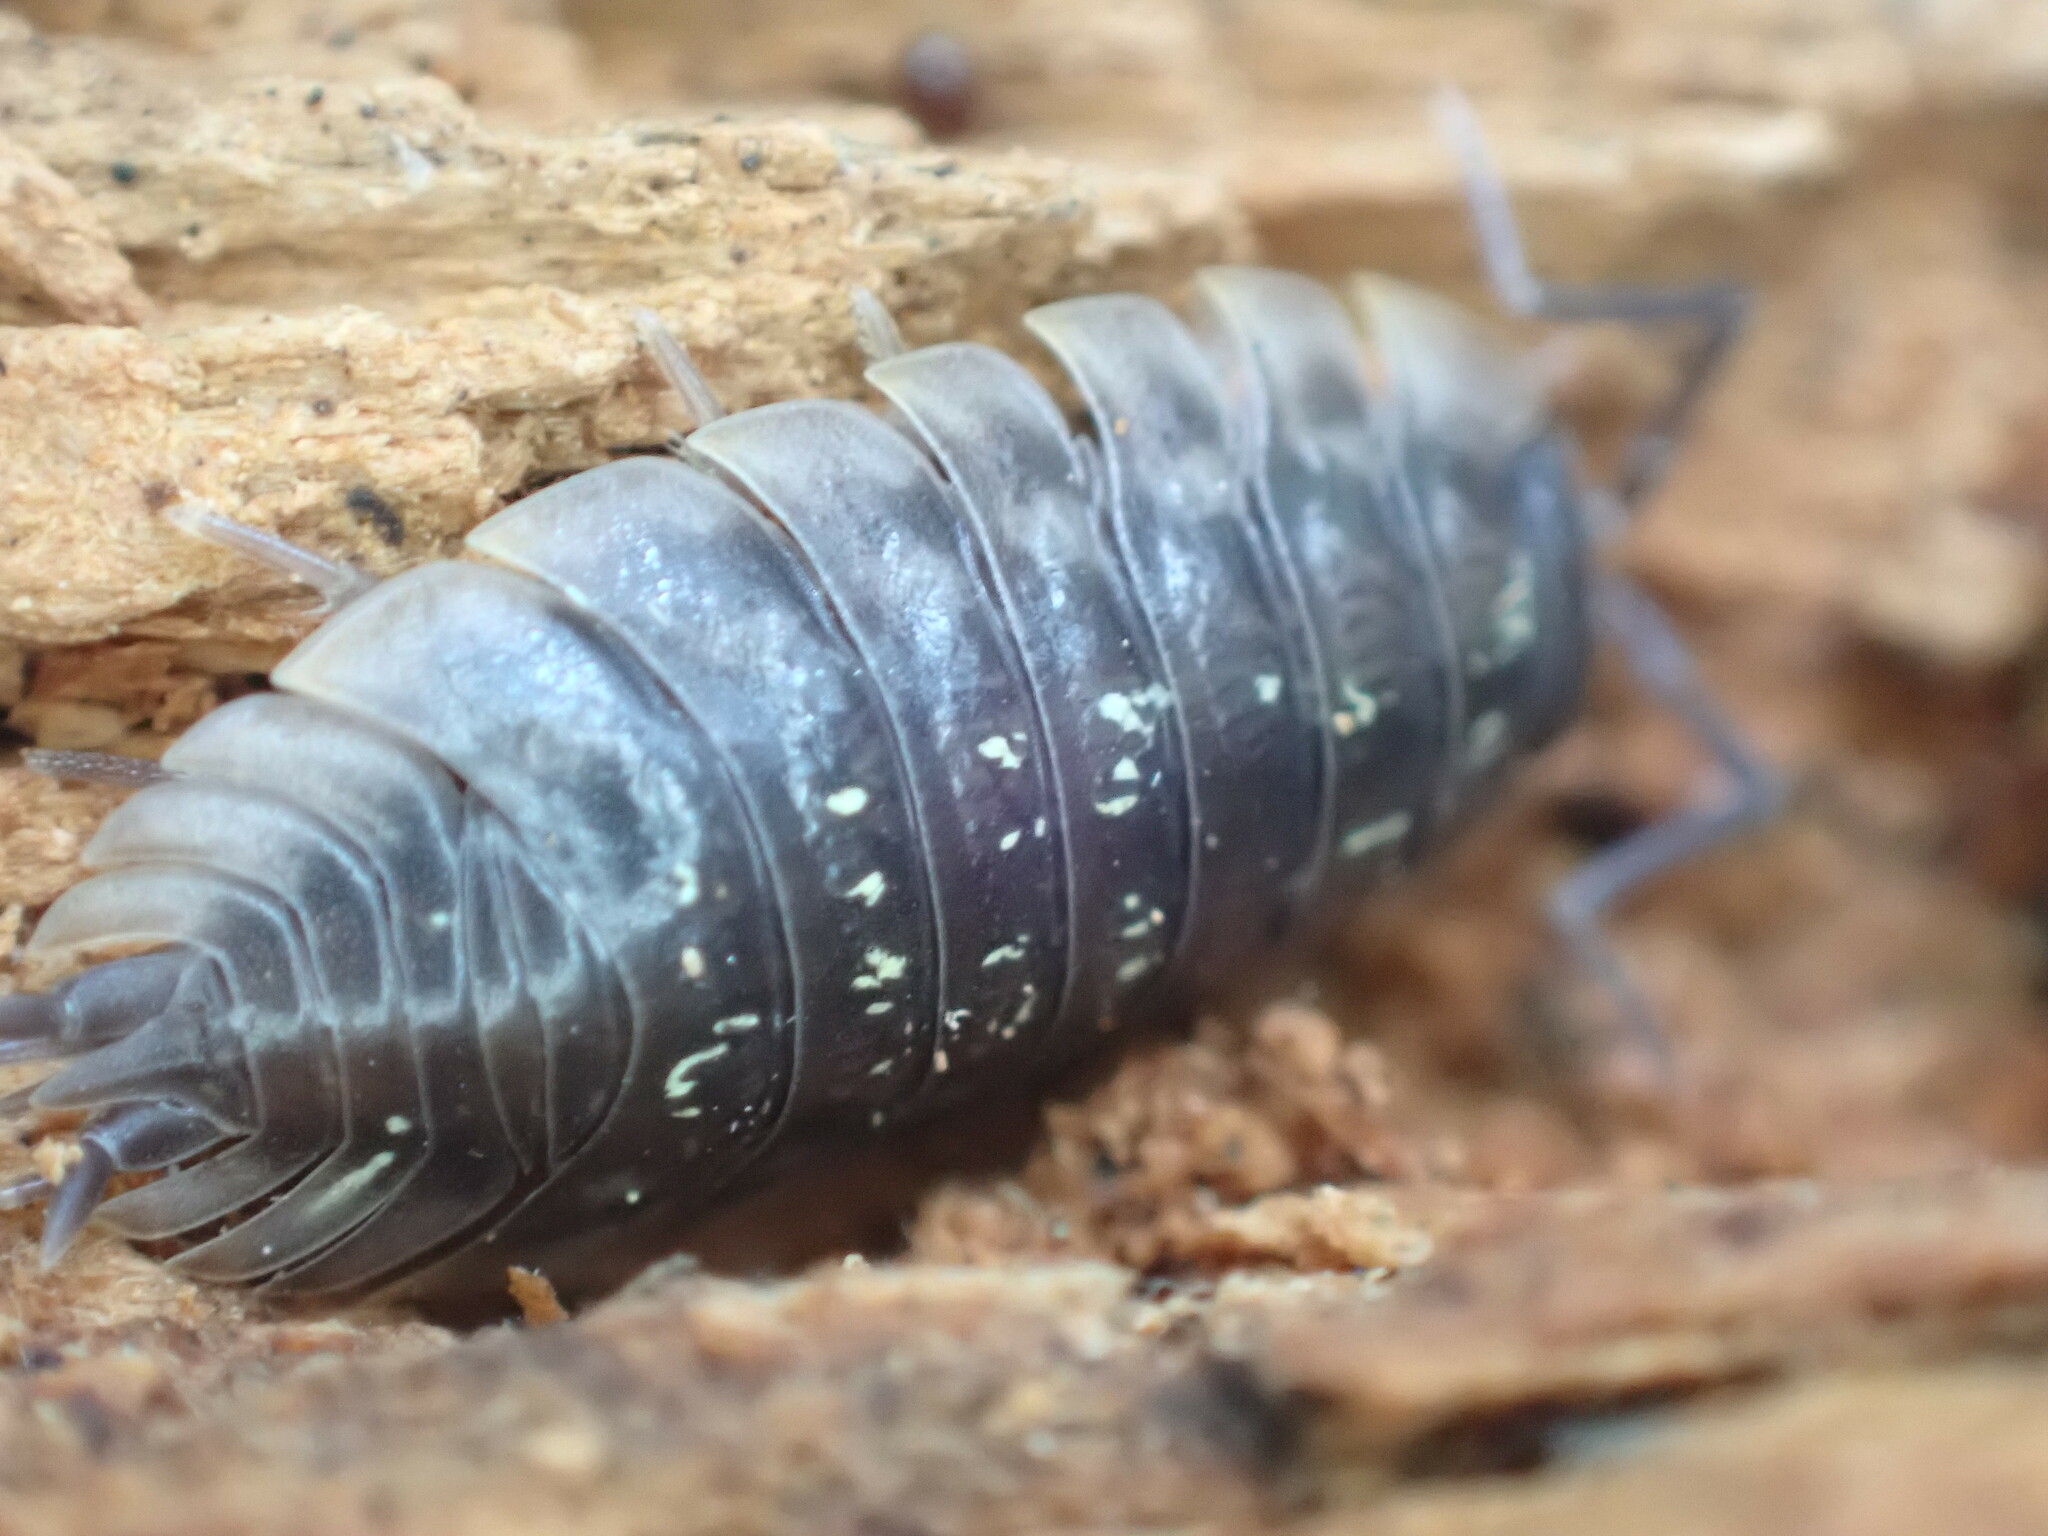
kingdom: Animalia
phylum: Arthropoda
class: Malacostraca
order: Isopoda
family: Oniscidae
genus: Oniscus
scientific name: Oniscus asellus
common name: Common shiny woodlouse
